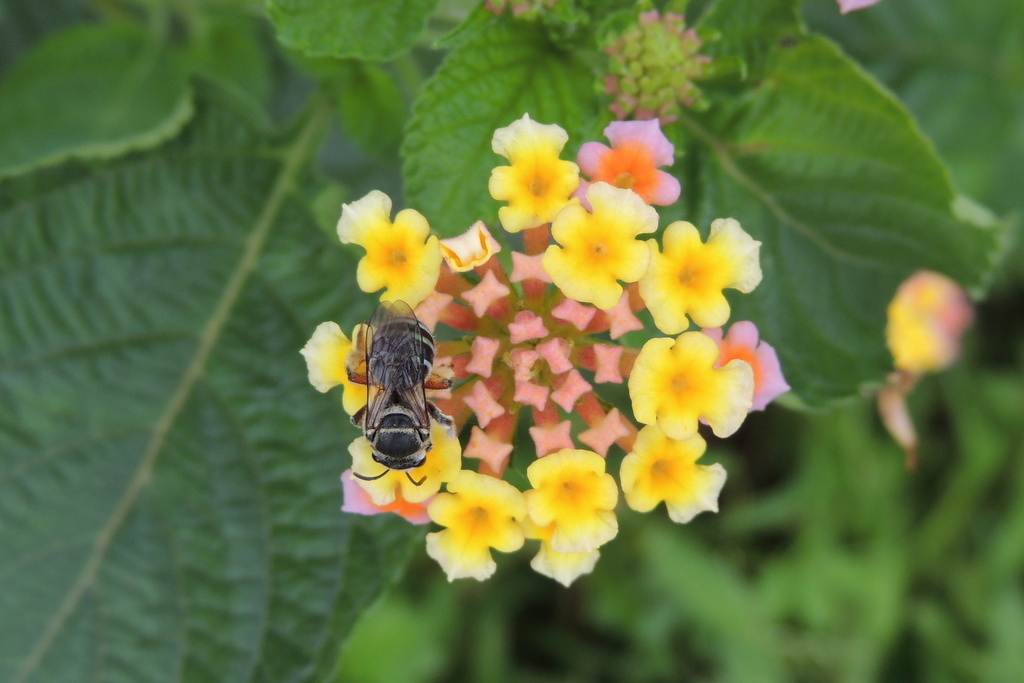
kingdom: Animalia
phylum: Arthropoda
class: Insecta
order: Hymenoptera
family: Halictidae
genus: Nomia
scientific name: Nomia westwoodi
